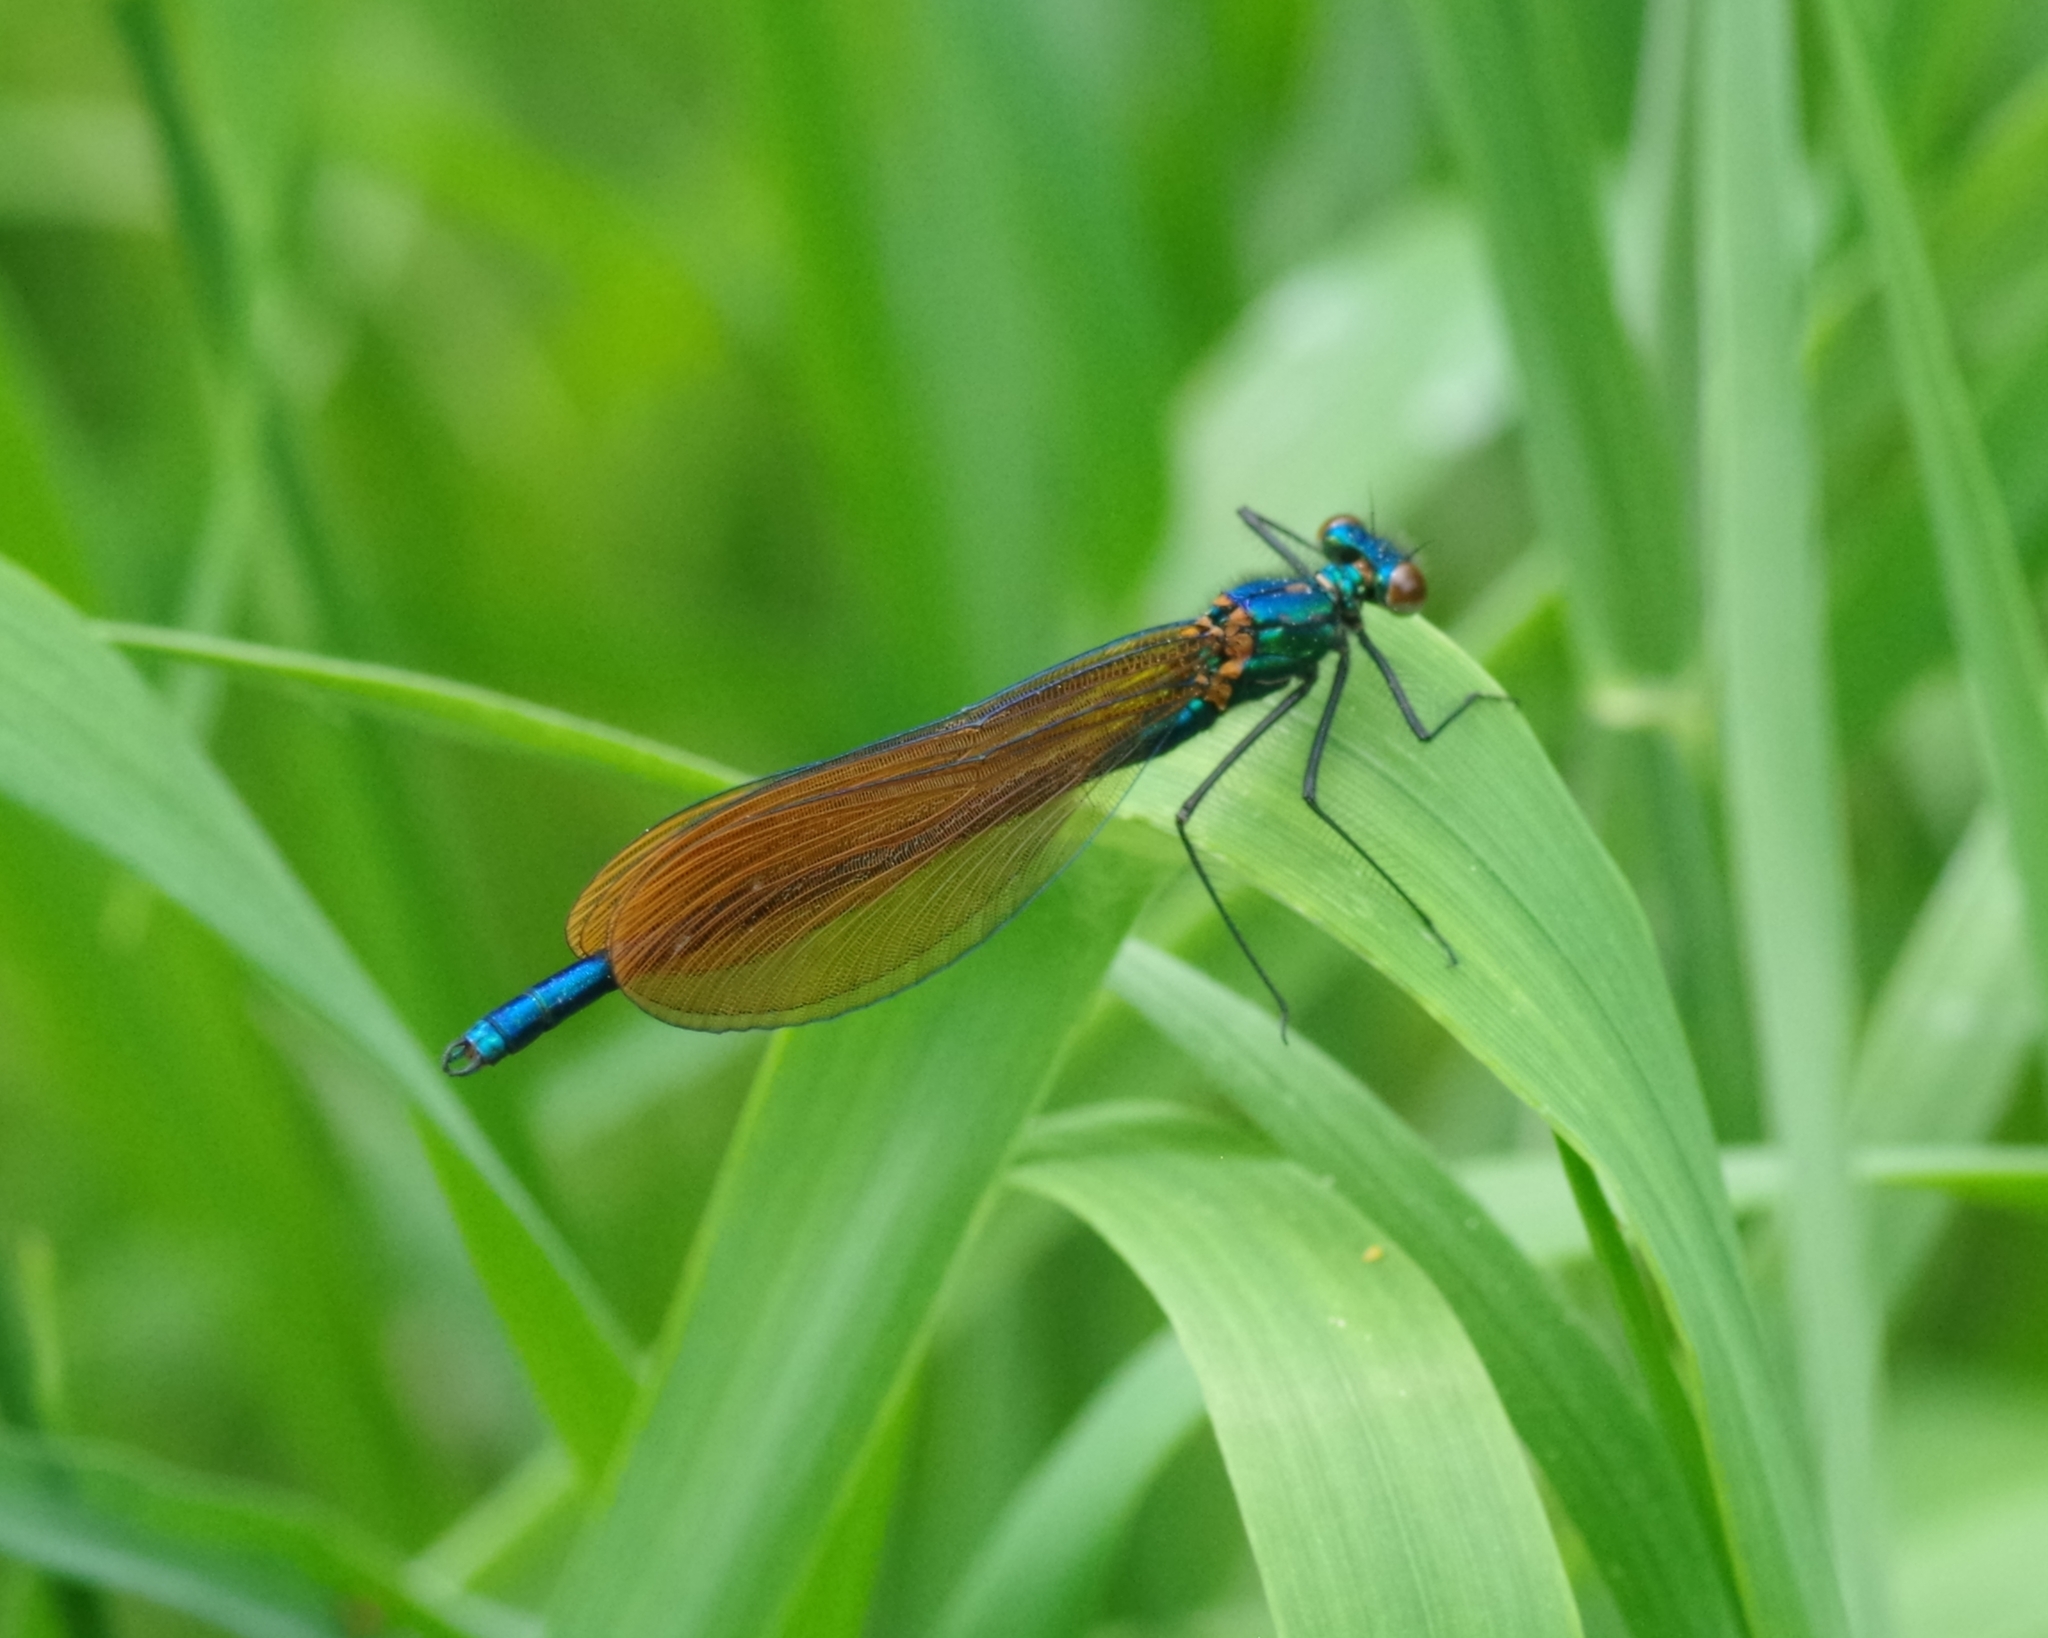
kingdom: Animalia
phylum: Arthropoda
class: Insecta
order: Odonata
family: Calopterygidae
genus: Calopteryx
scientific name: Calopteryx virgo
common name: Beautiful demoiselle
